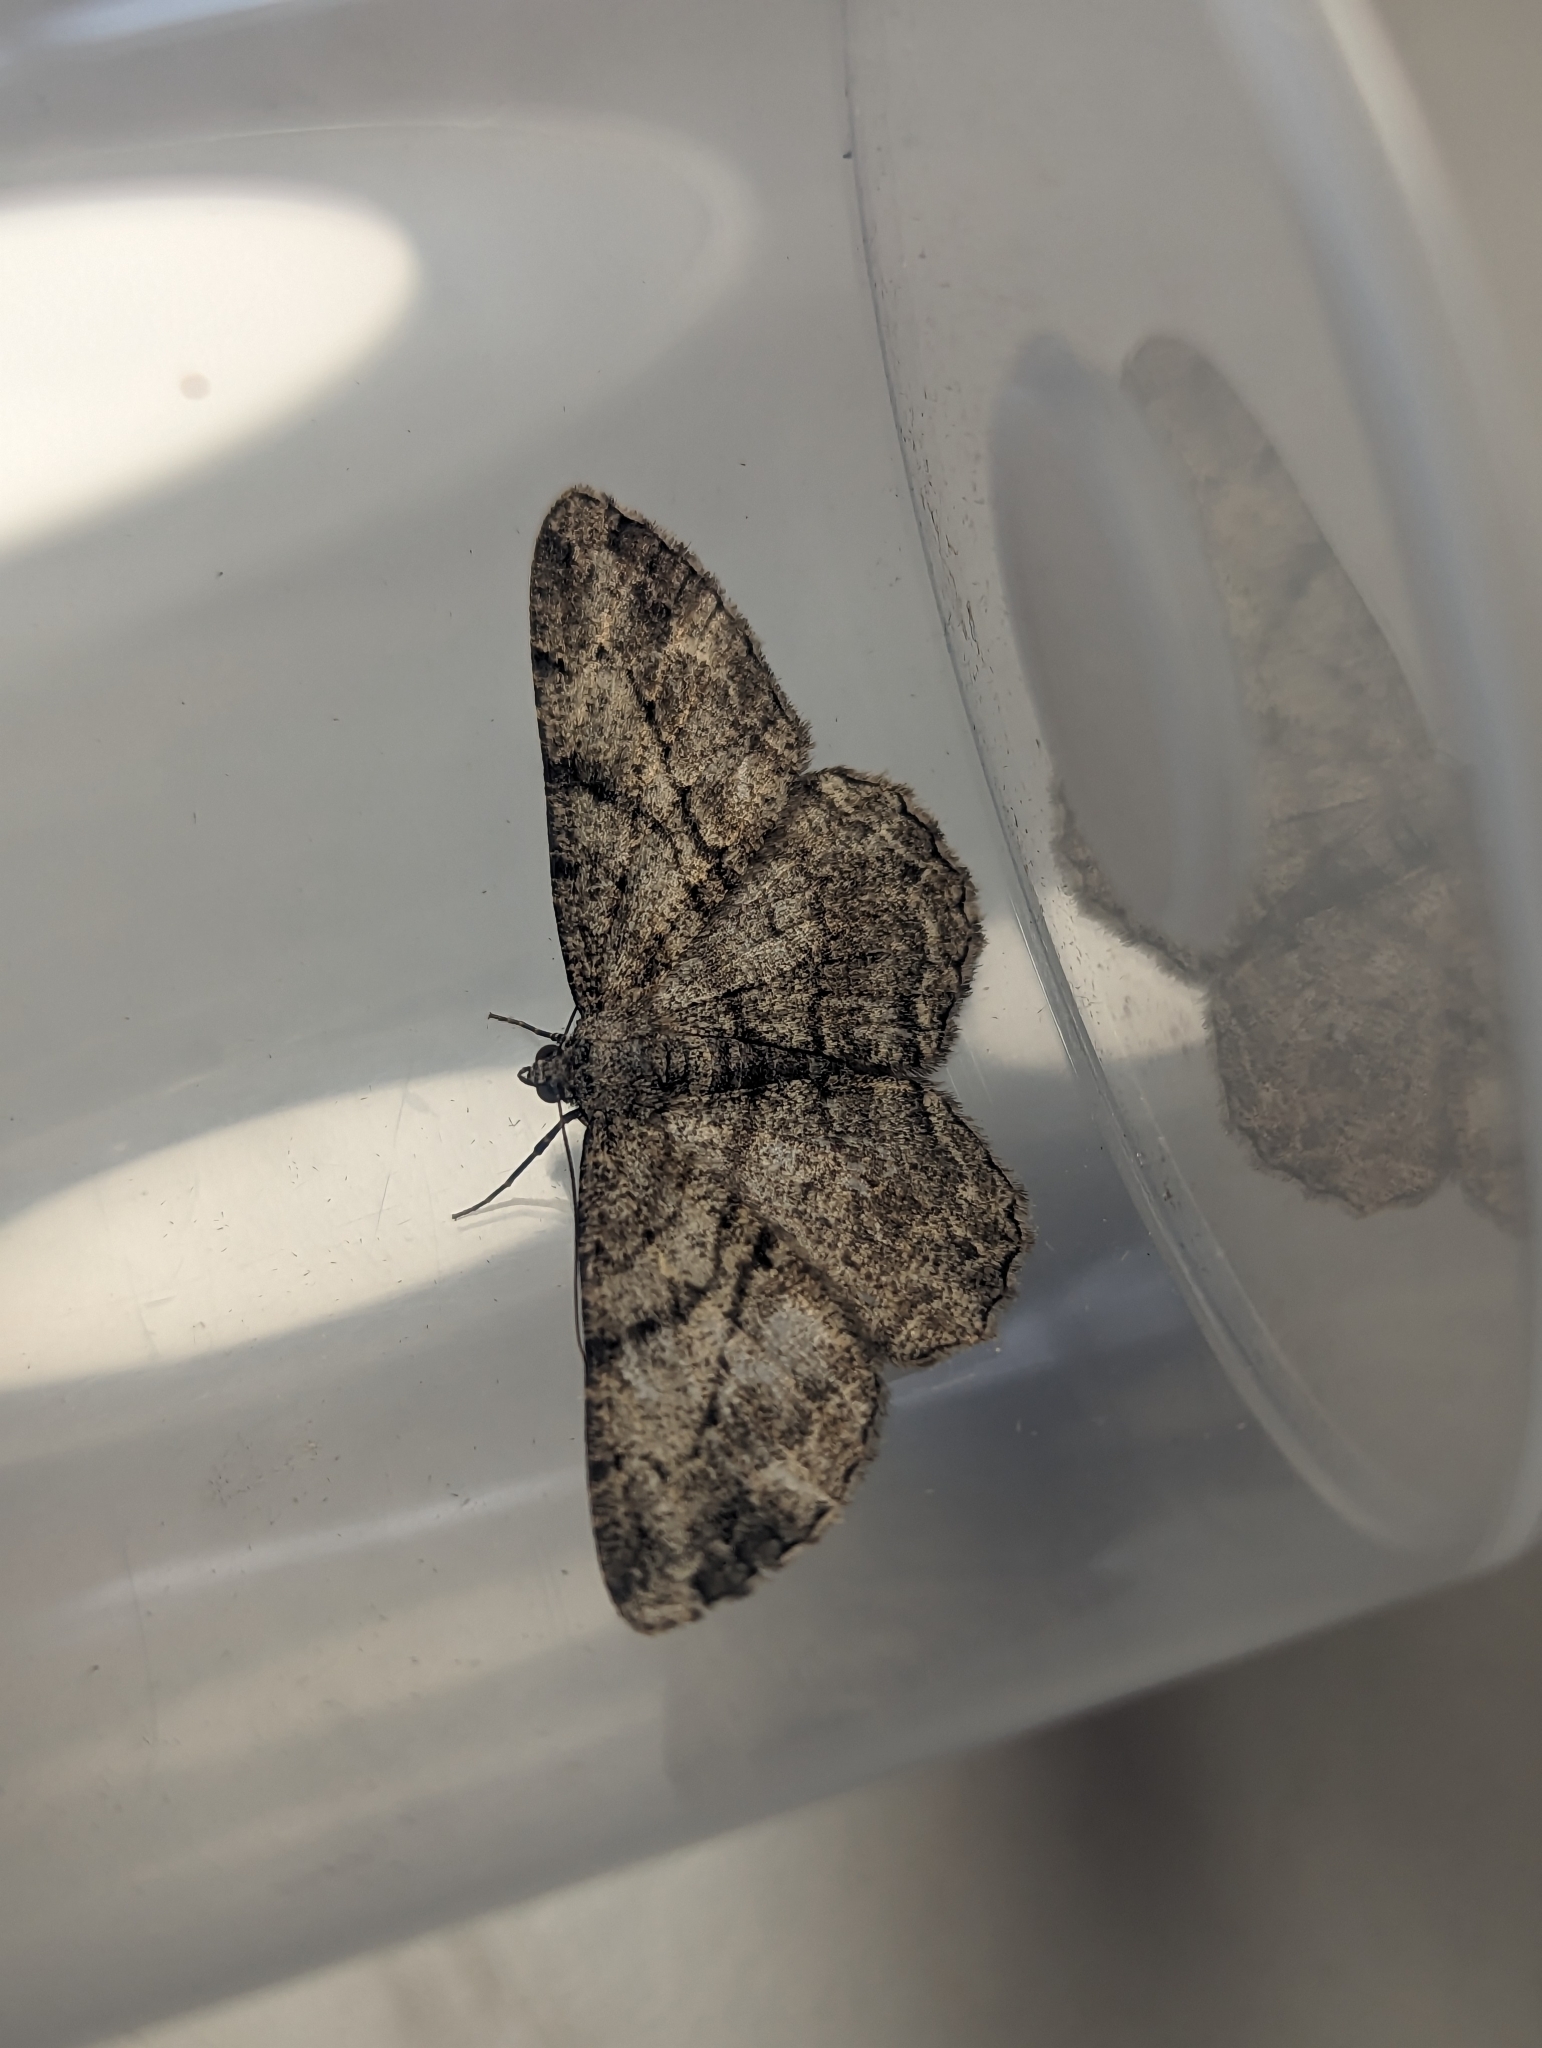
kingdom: Animalia
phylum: Arthropoda
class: Insecta
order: Lepidoptera
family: Geometridae
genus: Peribatodes
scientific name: Peribatodes rhomboidaria
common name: Willow beauty
